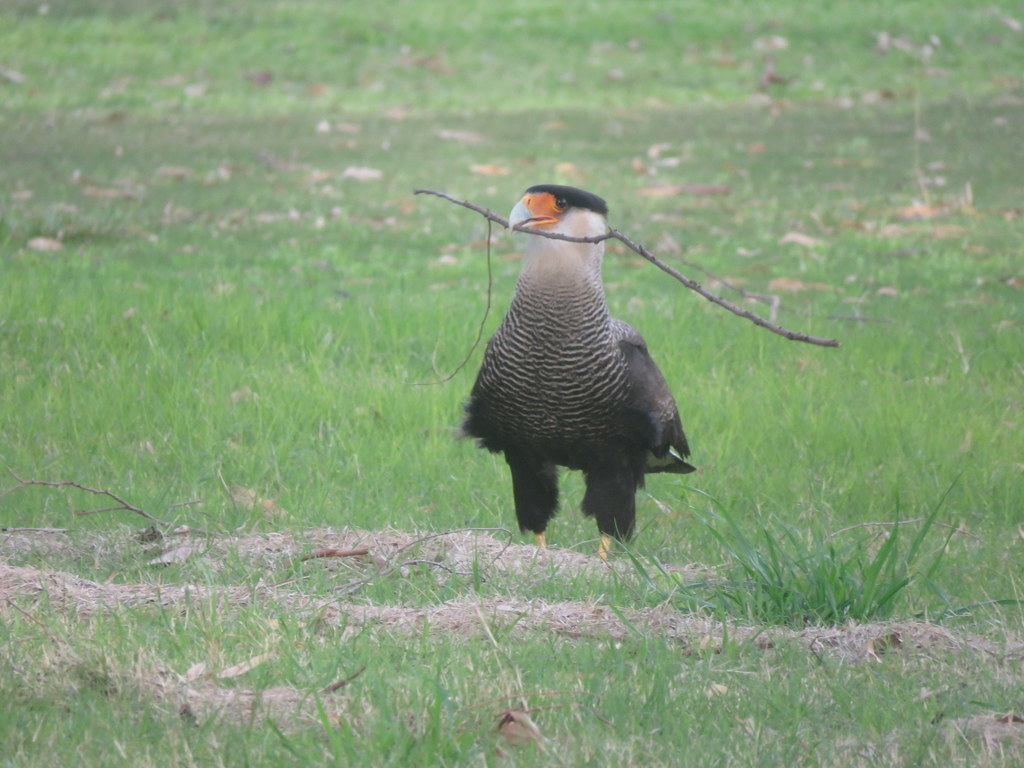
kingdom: Animalia
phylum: Chordata
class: Aves
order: Falconiformes
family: Falconidae
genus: Caracara
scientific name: Caracara plancus
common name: Southern caracara
